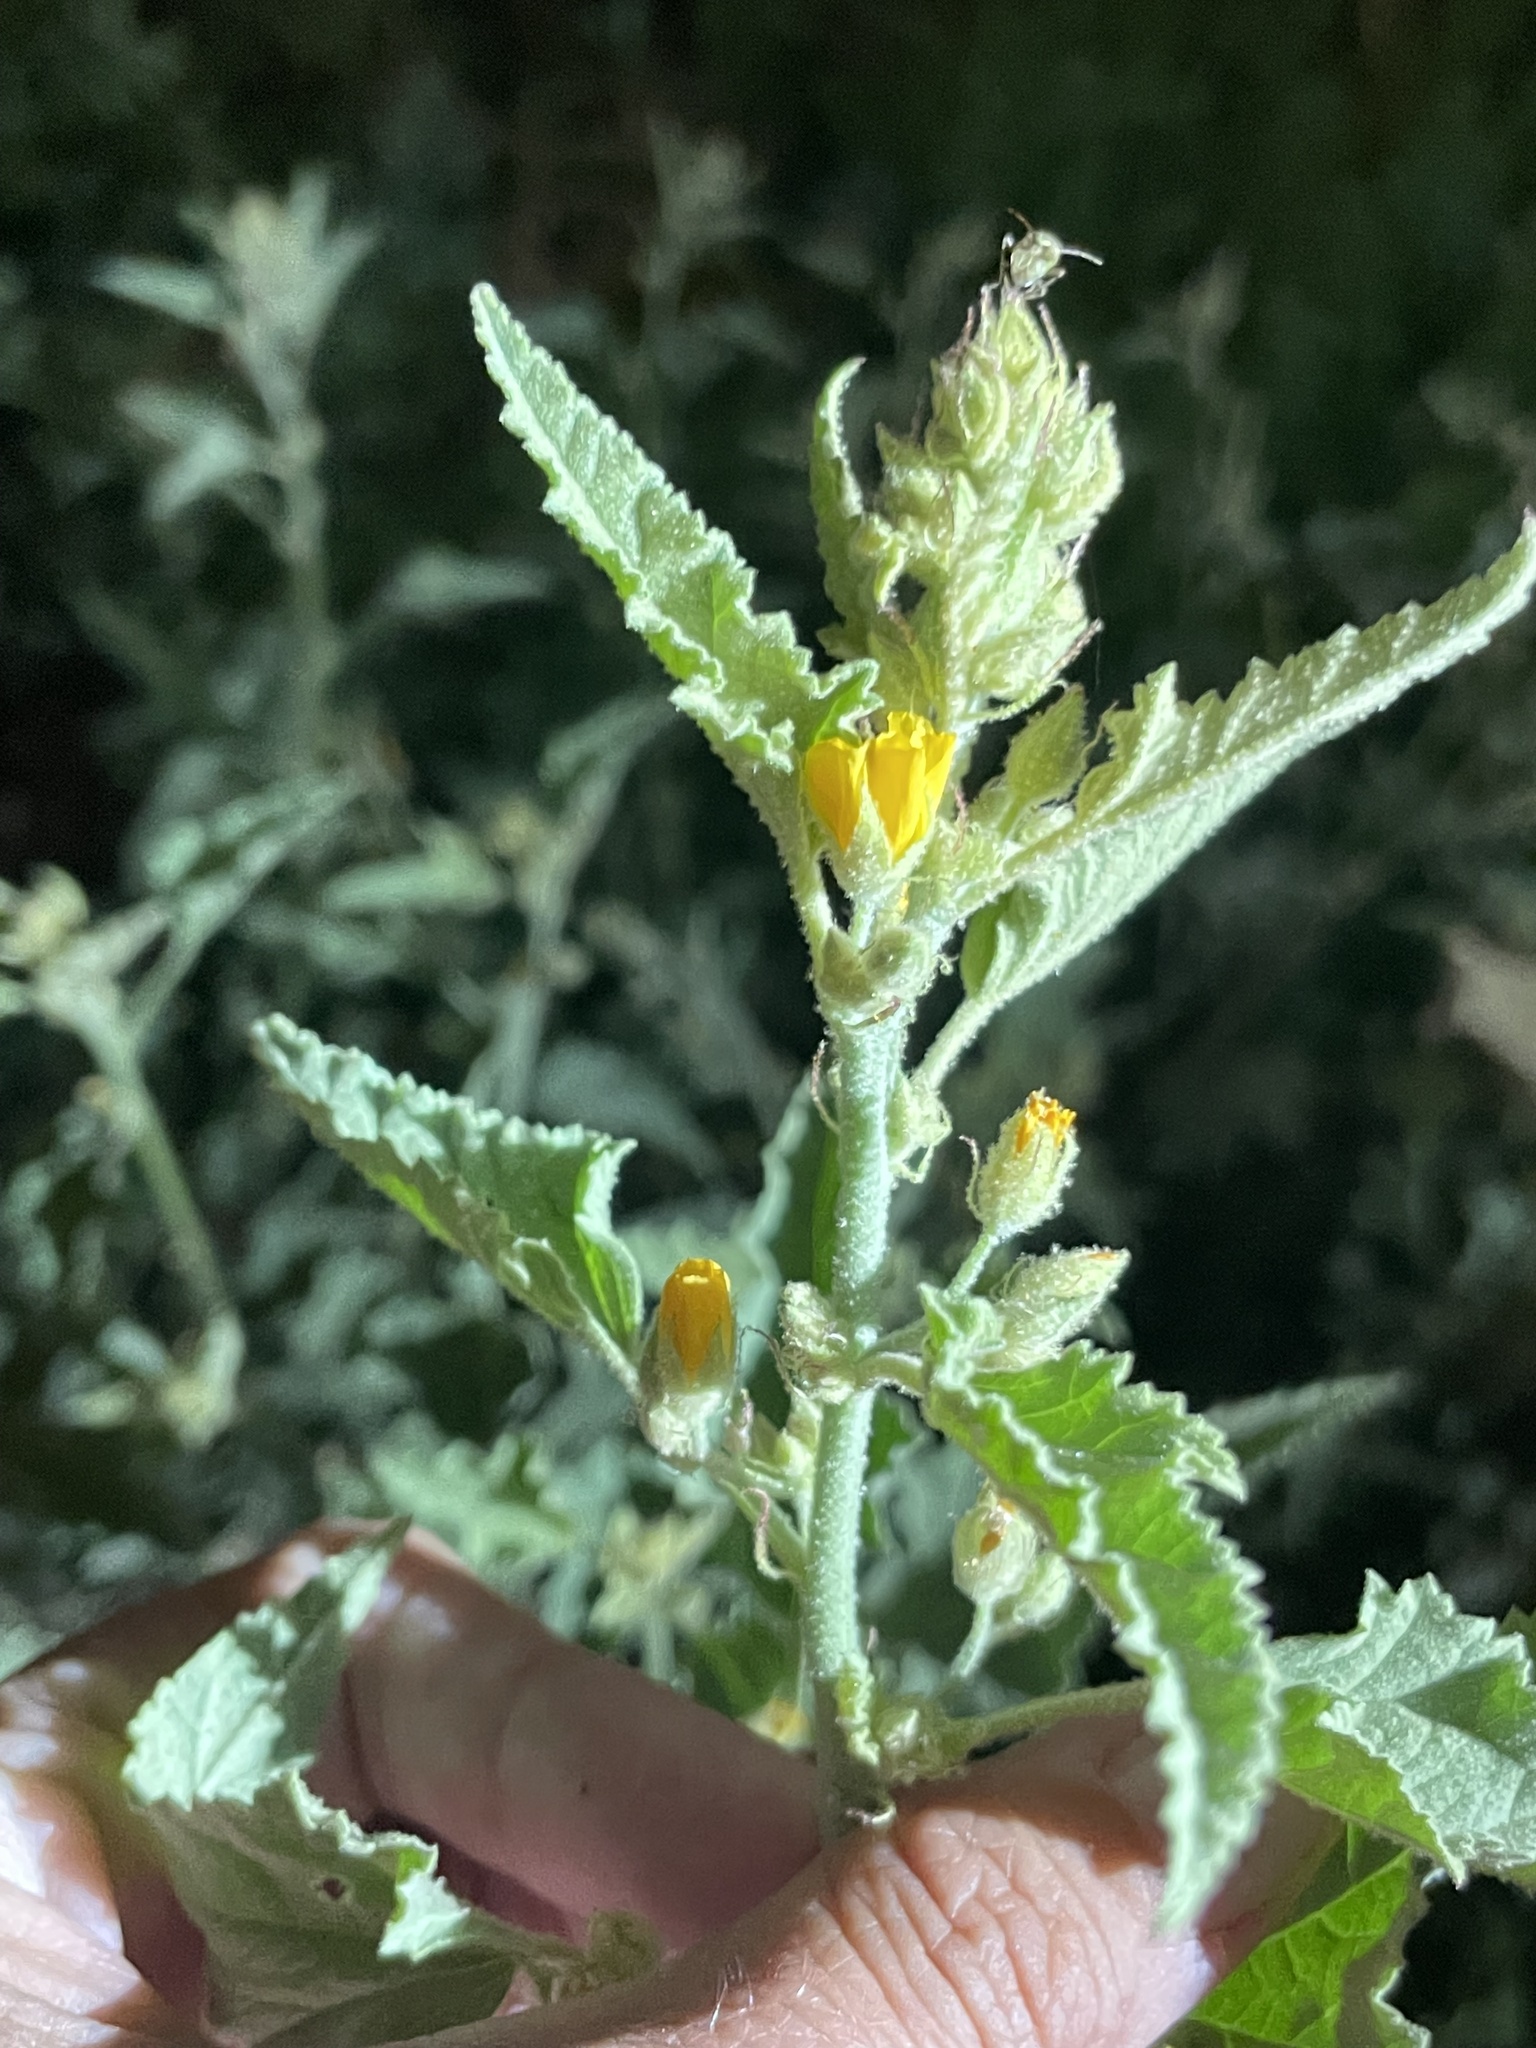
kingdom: Plantae
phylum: Tracheophyta
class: Magnoliopsida
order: Malvales
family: Malvaceae
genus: Sphaeralcea
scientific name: Sphaeralcea coulteri
